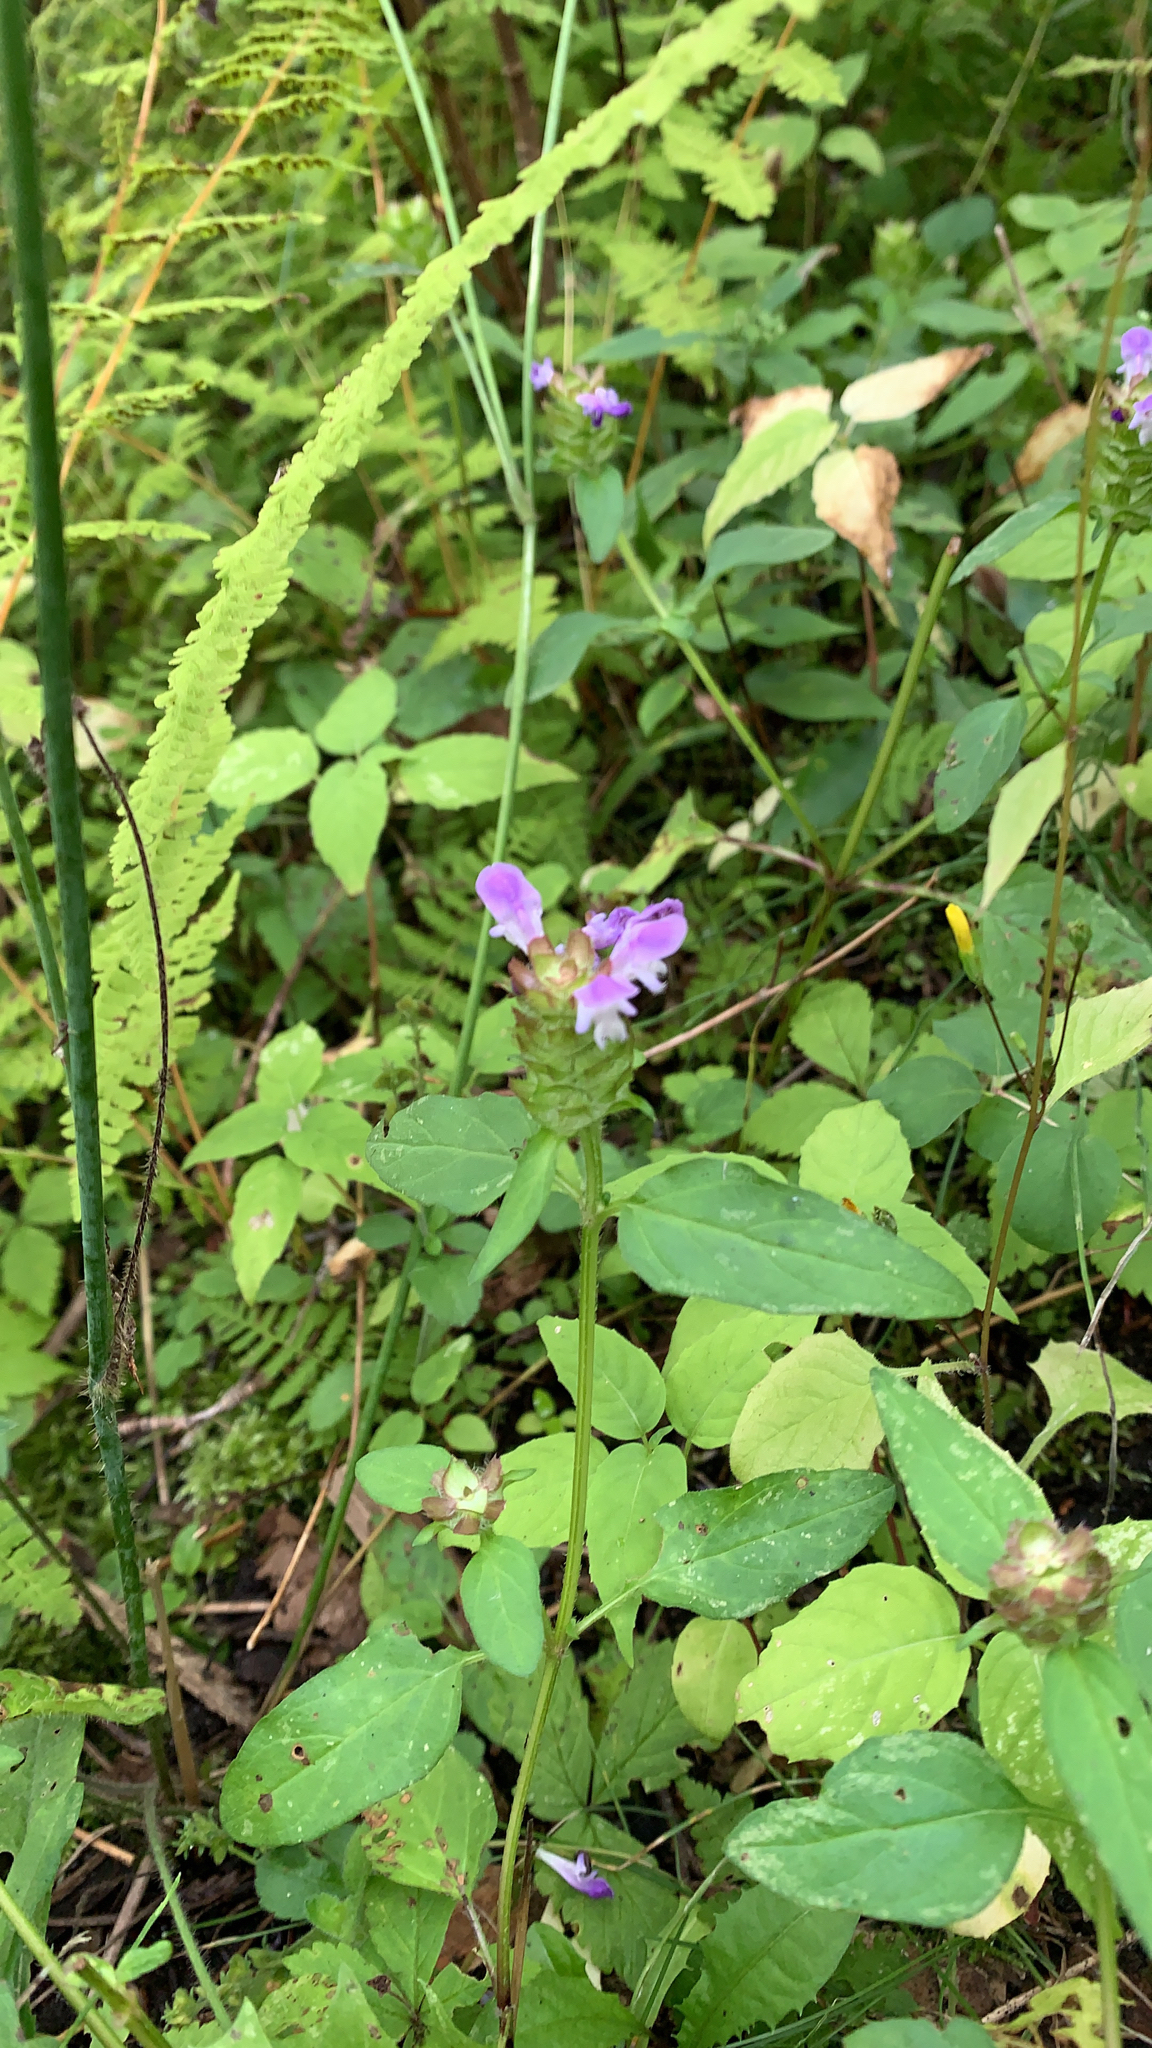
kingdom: Plantae
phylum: Tracheophyta
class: Magnoliopsida
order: Lamiales
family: Lamiaceae
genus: Prunella
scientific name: Prunella vulgaris
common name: Heal-all
